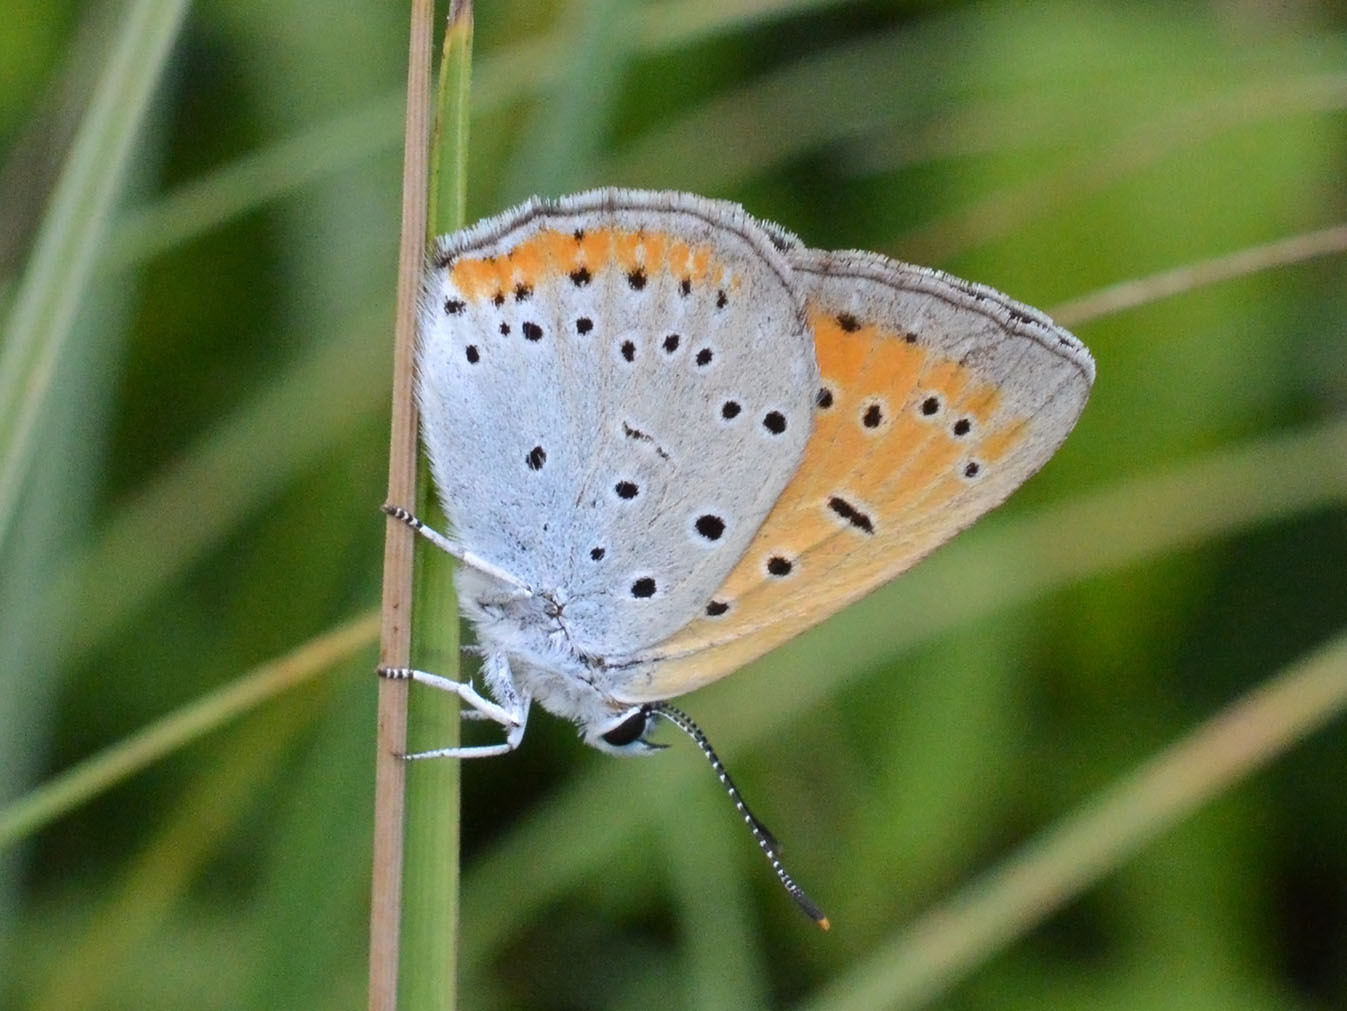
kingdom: Animalia
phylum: Arthropoda
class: Insecta
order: Lepidoptera
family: Lycaenidae
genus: Lycaena
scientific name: Lycaena dispar
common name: Large copper
